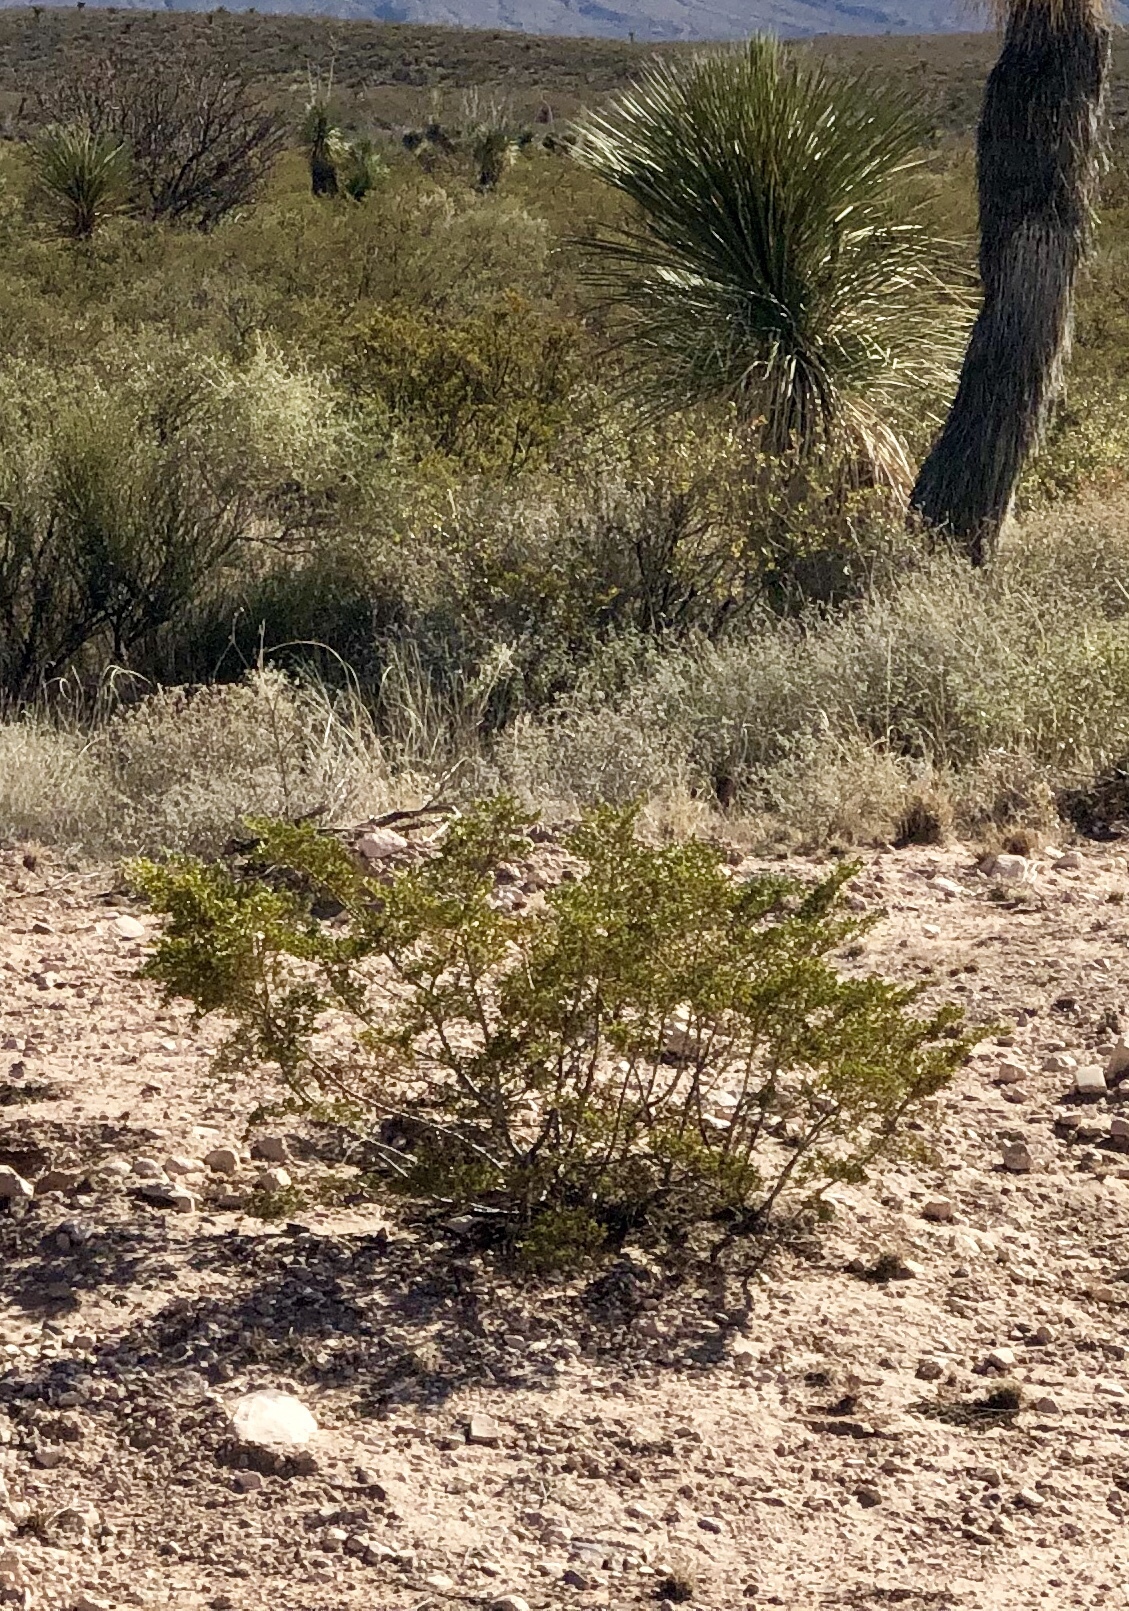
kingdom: Plantae
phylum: Tracheophyta
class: Magnoliopsida
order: Zygophyllales
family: Zygophyllaceae
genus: Larrea
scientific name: Larrea tridentata
